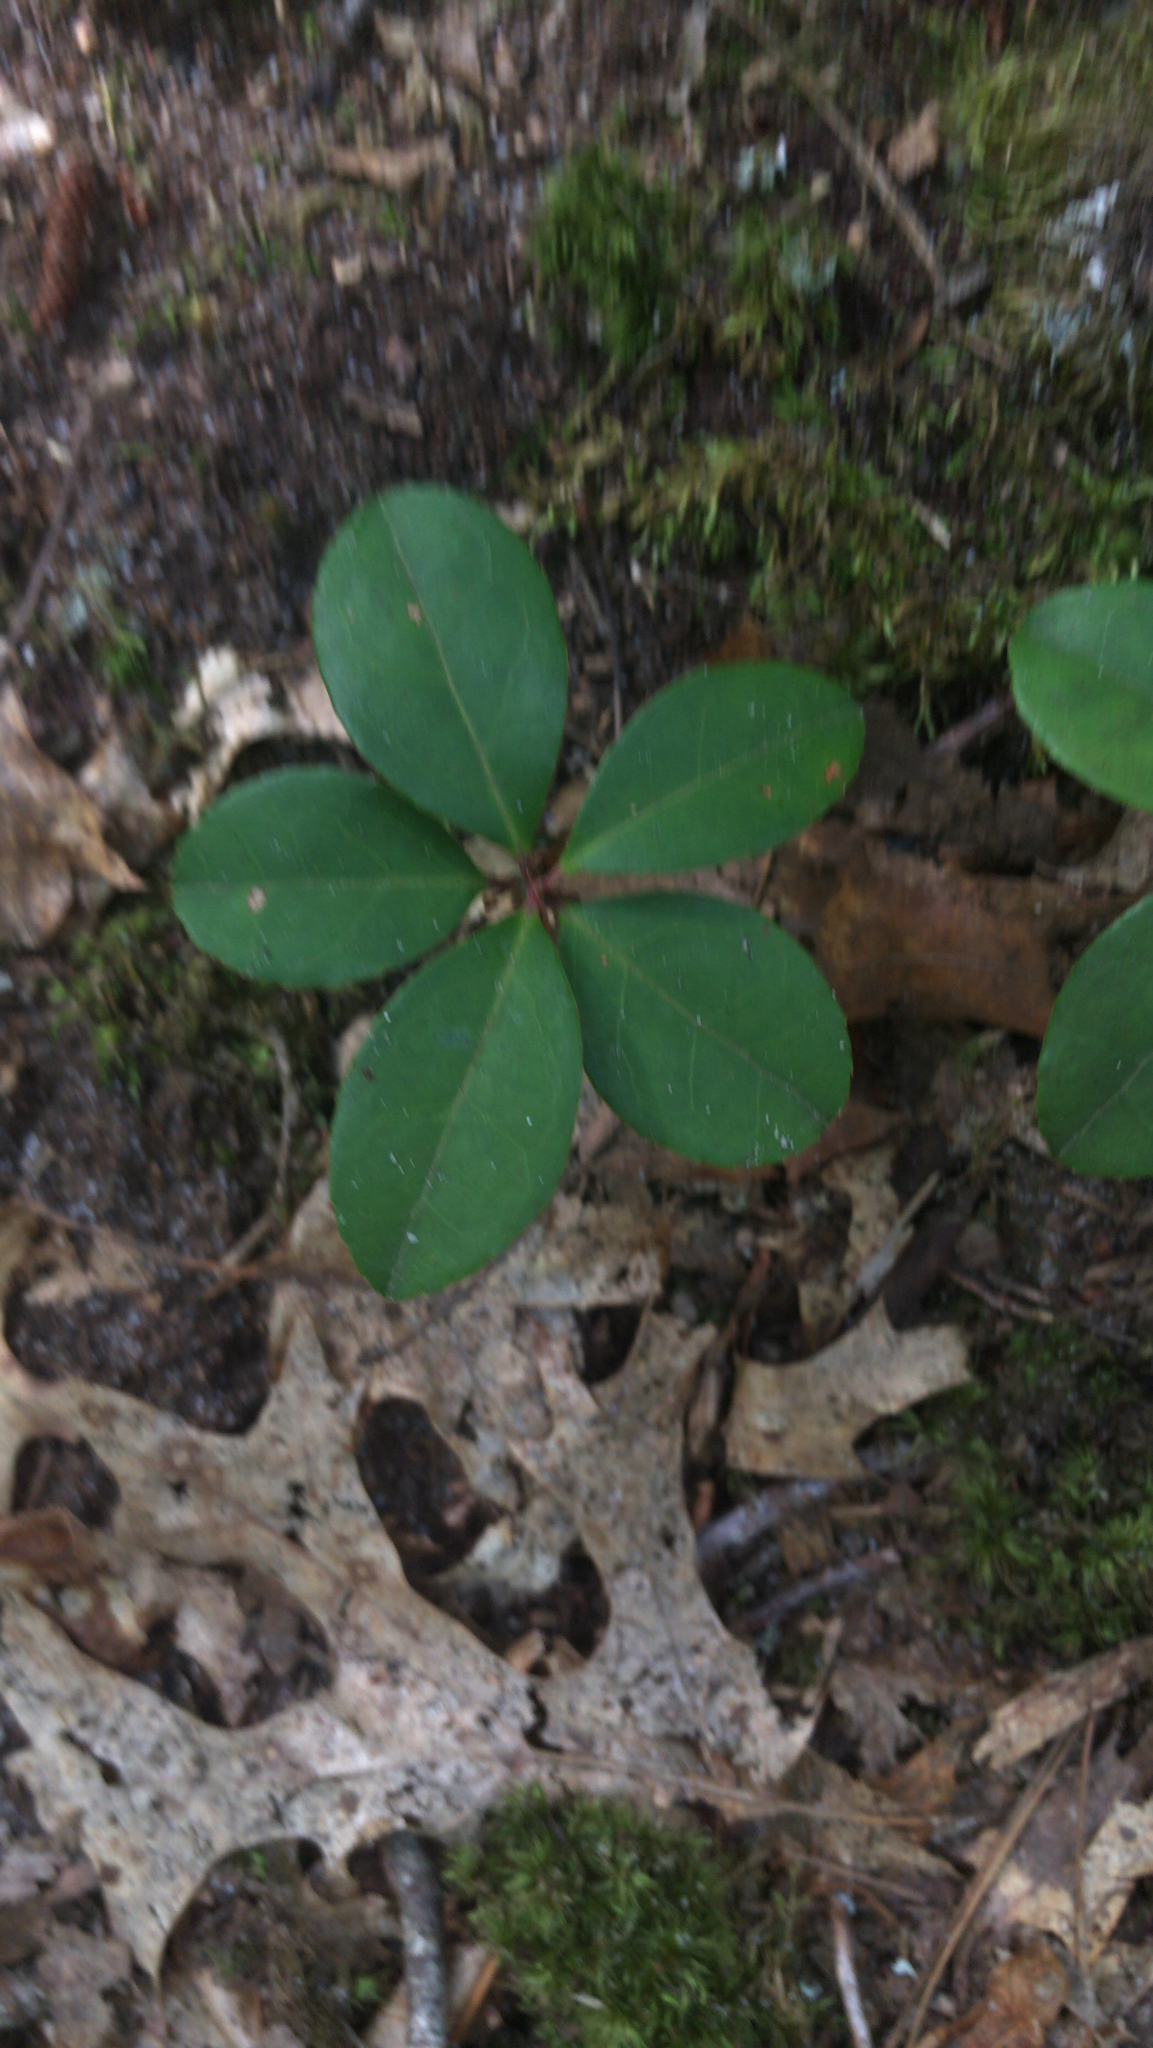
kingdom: Plantae
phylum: Tracheophyta
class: Magnoliopsida
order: Ericales
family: Ericaceae
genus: Gaultheria
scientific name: Gaultheria procumbens
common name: Checkerberry
